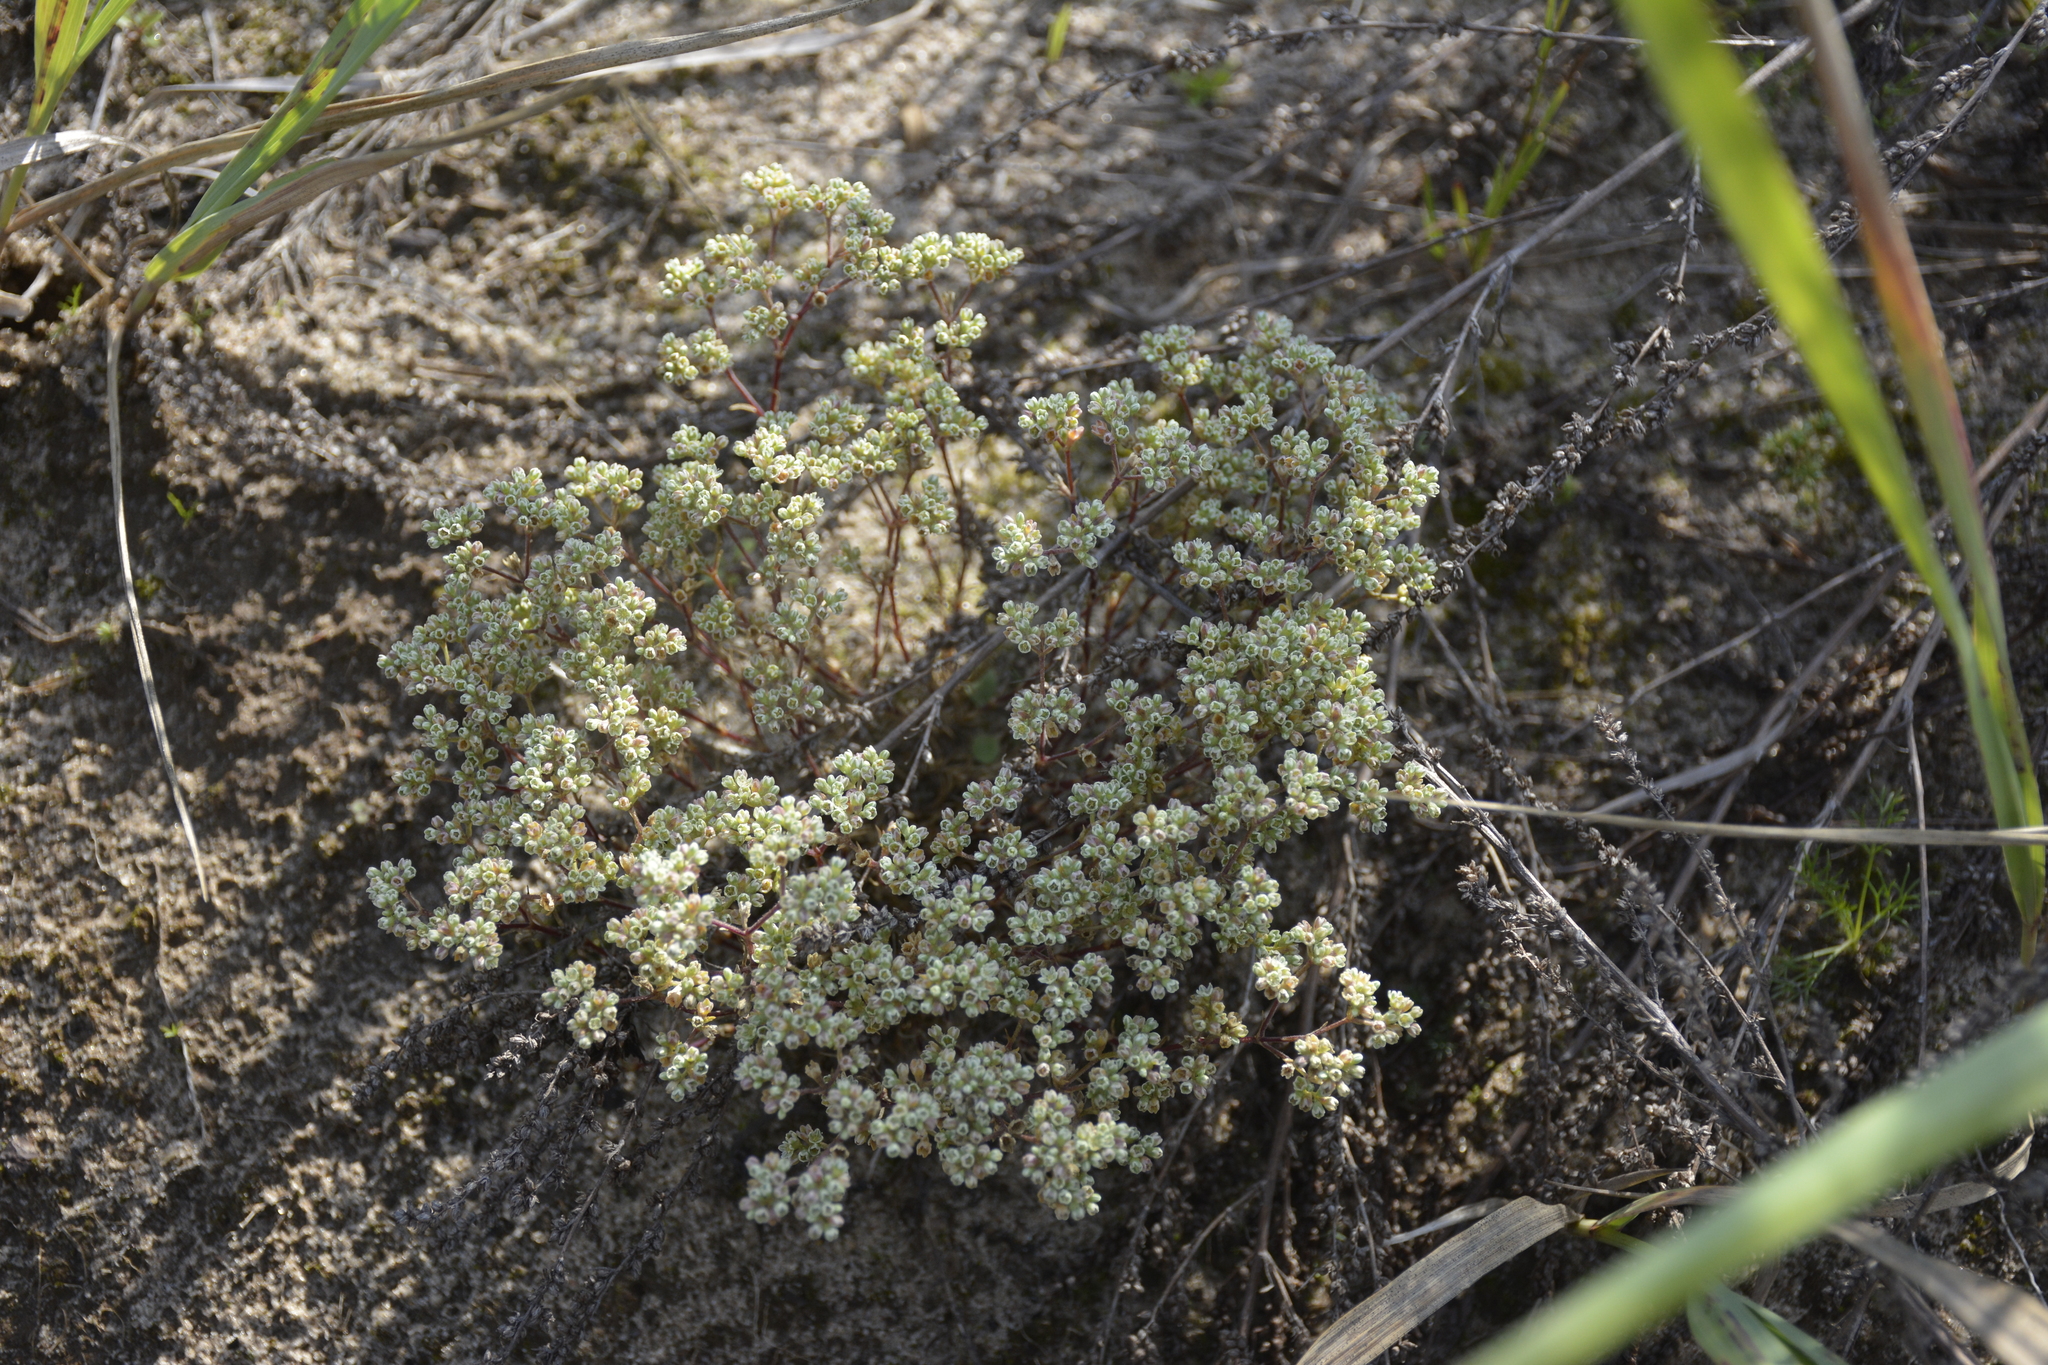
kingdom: Plantae
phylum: Tracheophyta
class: Magnoliopsida
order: Caryophyllales
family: Caryophyllaceae
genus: Scleranthus
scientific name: Scleranthus perennis
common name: Perennial knawel
